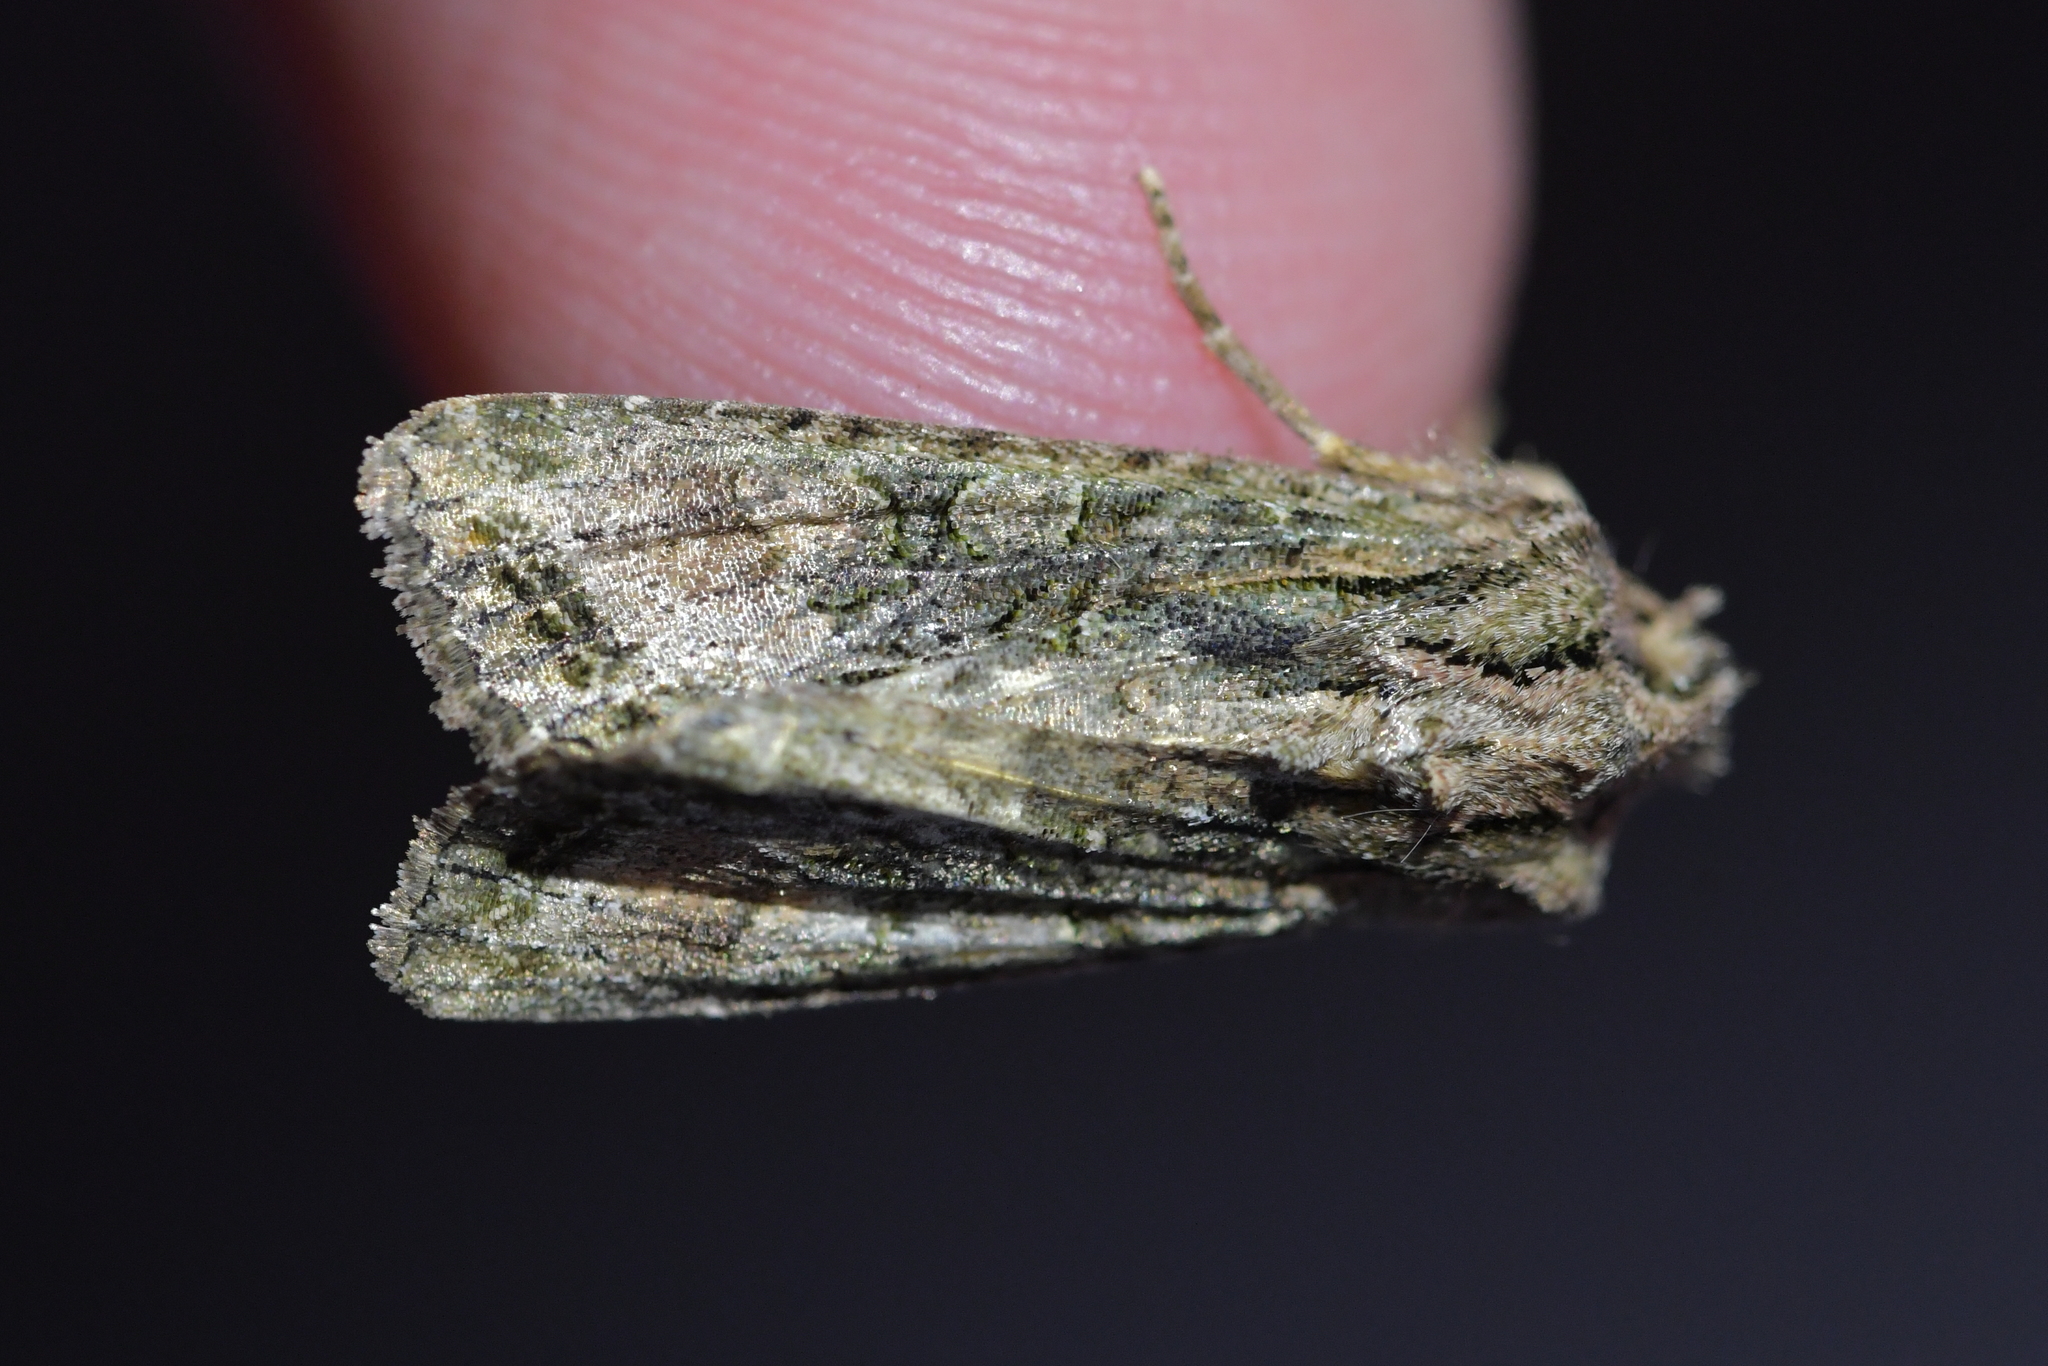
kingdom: Animalia
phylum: Arthropoda
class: Insecta
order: Lepidoptera
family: Noctuidae
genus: Ichneutica
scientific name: Ichneutica mutans
